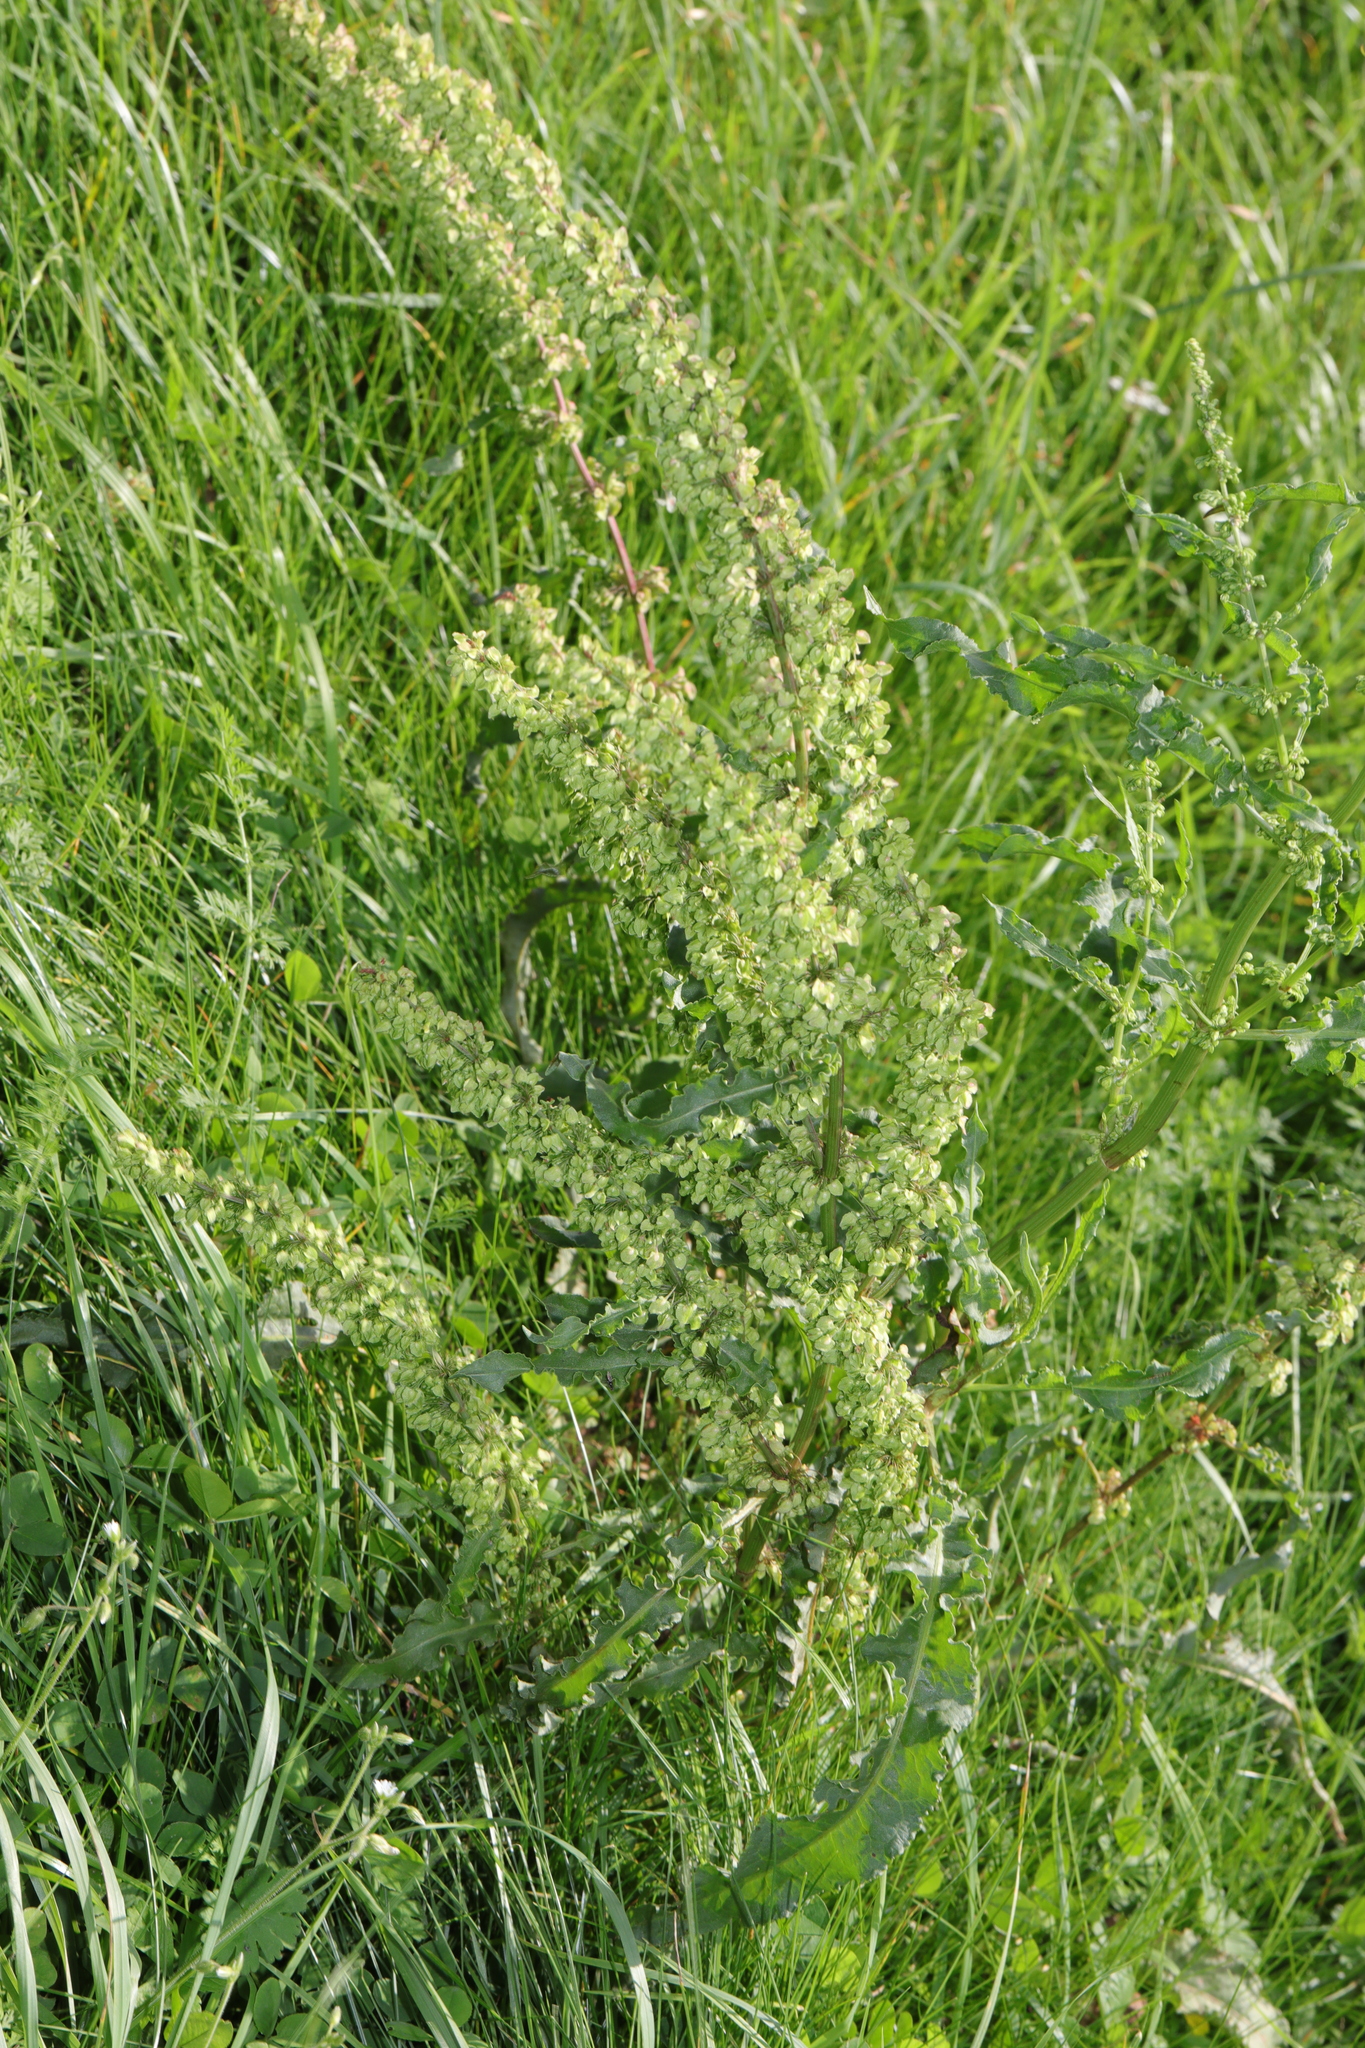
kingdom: Plantae
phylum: Tracheophyta
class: Magnoliopsida
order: Caryophyllales
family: Polygonaceae
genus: Rumex
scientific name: Rumex crispus
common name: Curled dock
